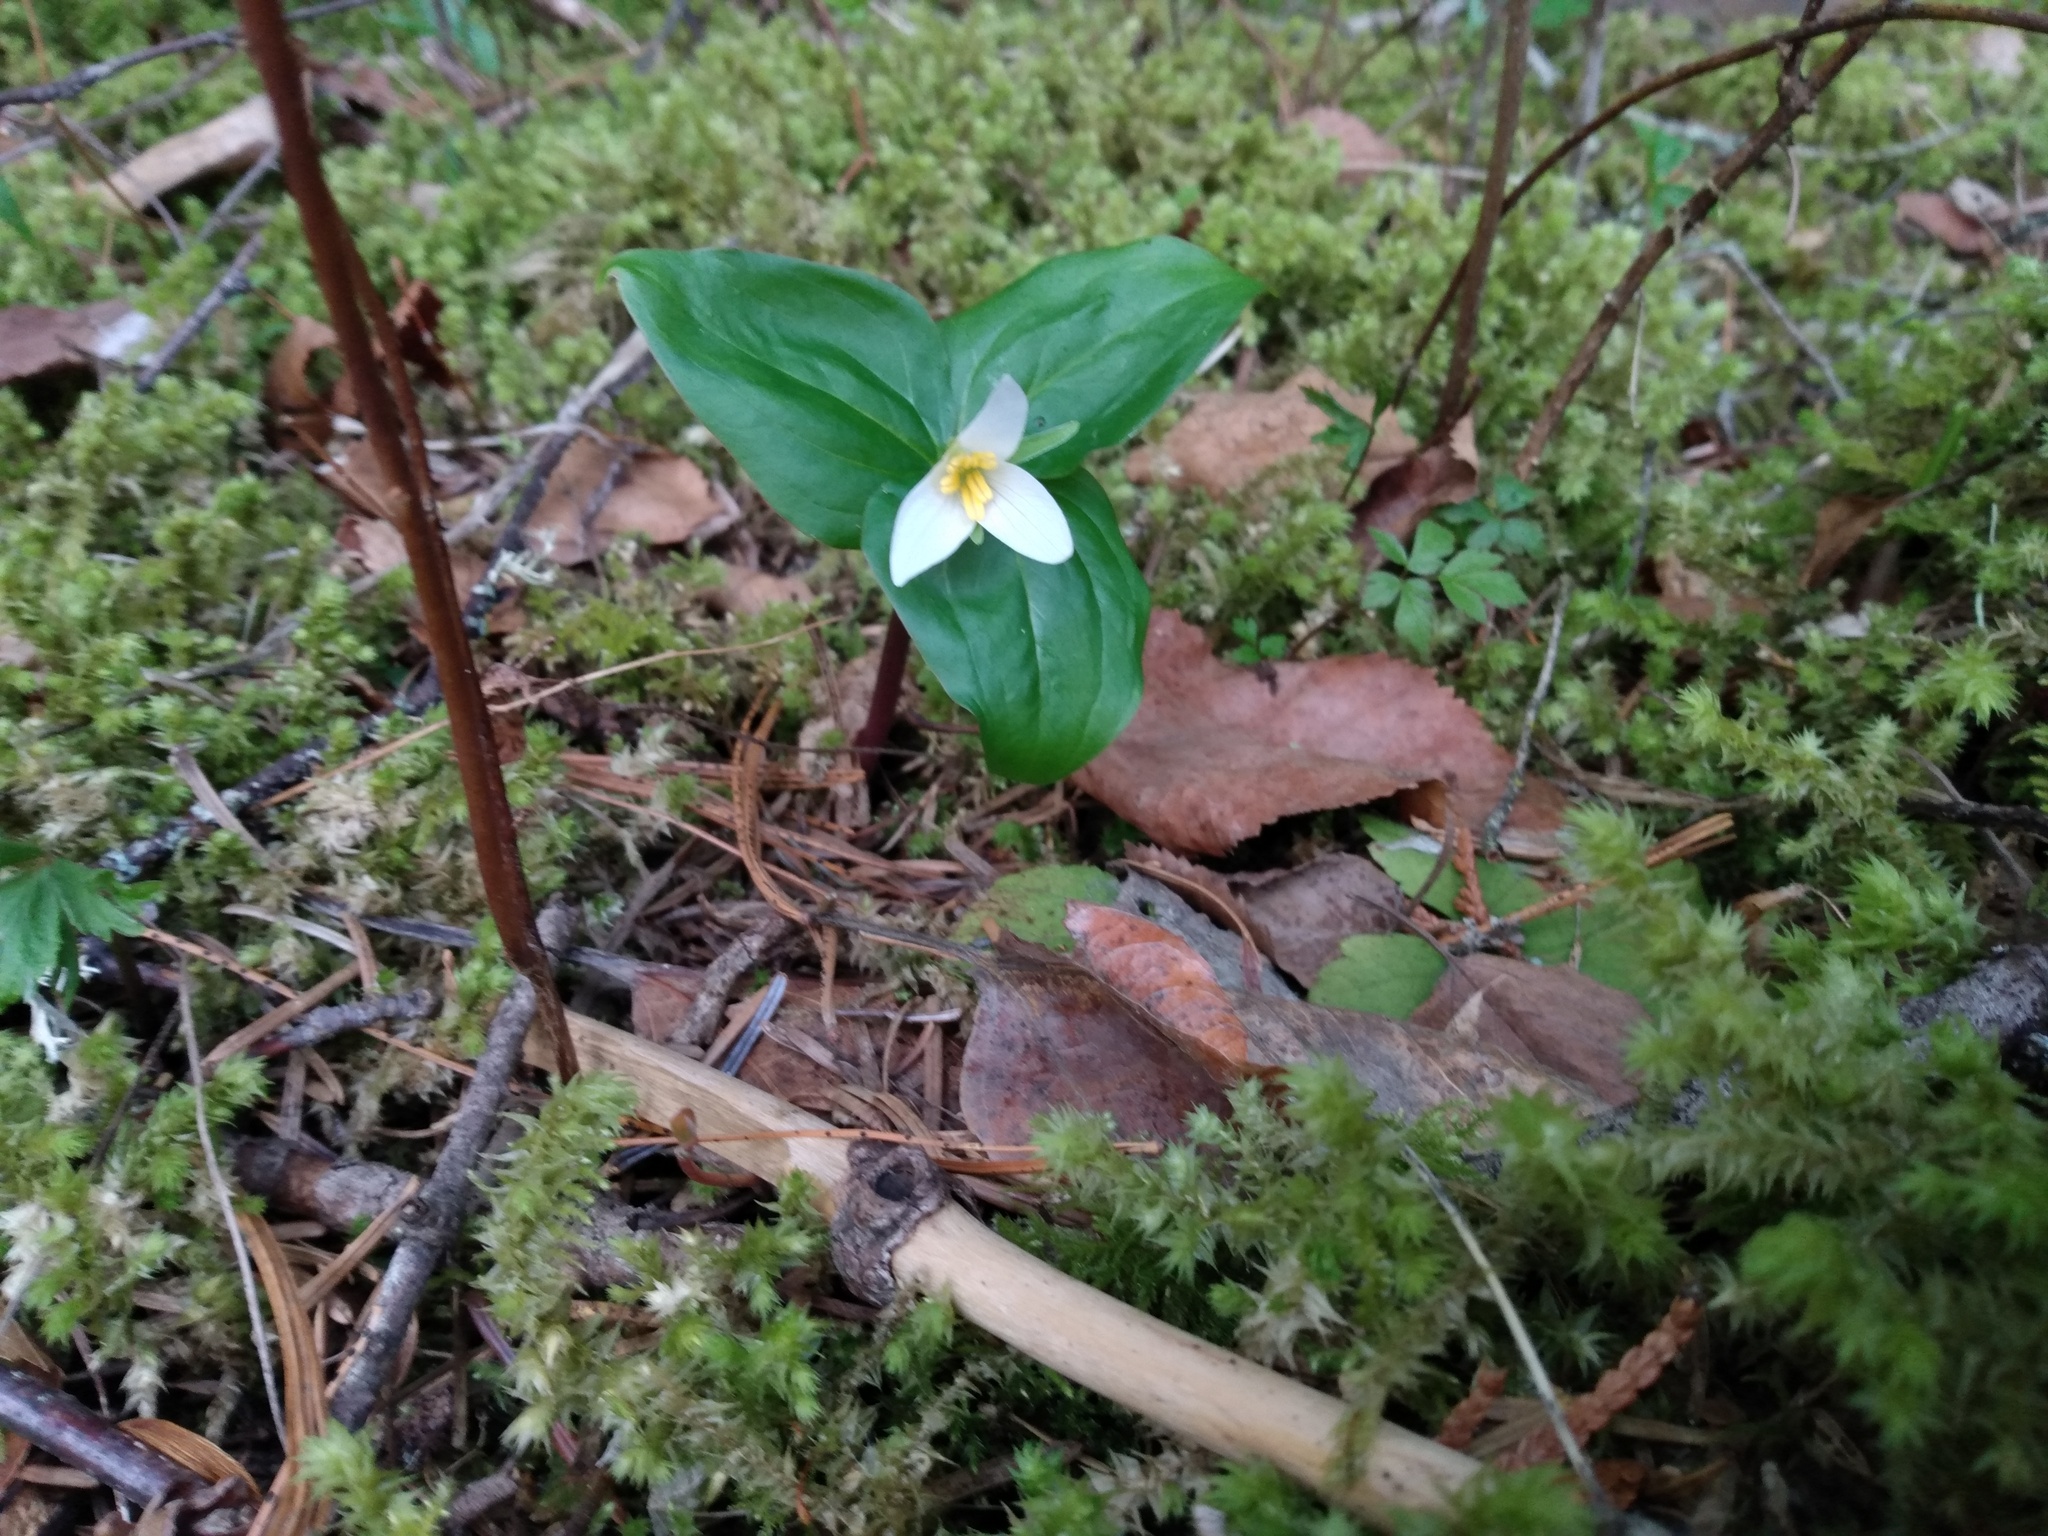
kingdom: Plantae
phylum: Tracheophyta
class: Liliopsida
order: Liliales
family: Melanthiaceae
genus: Trillium
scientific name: Trillium ovatum
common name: Pacific trillium
